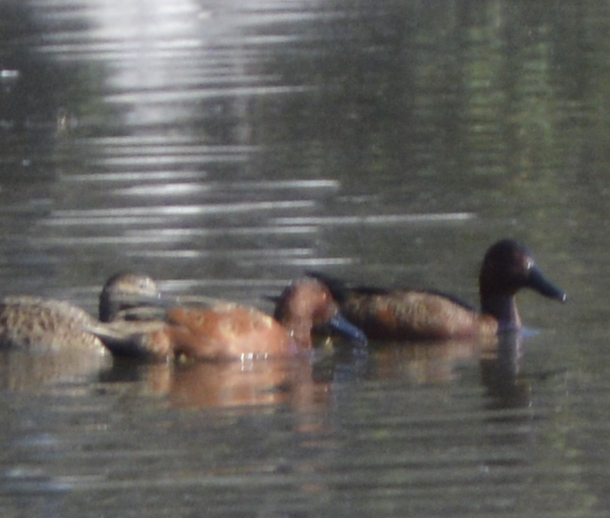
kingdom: Animalia
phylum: Chordata
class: Aves
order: Anseriformes
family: Anatidae
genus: Spatula
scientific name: Spatula cyanoptera
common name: Cinnamon teal
